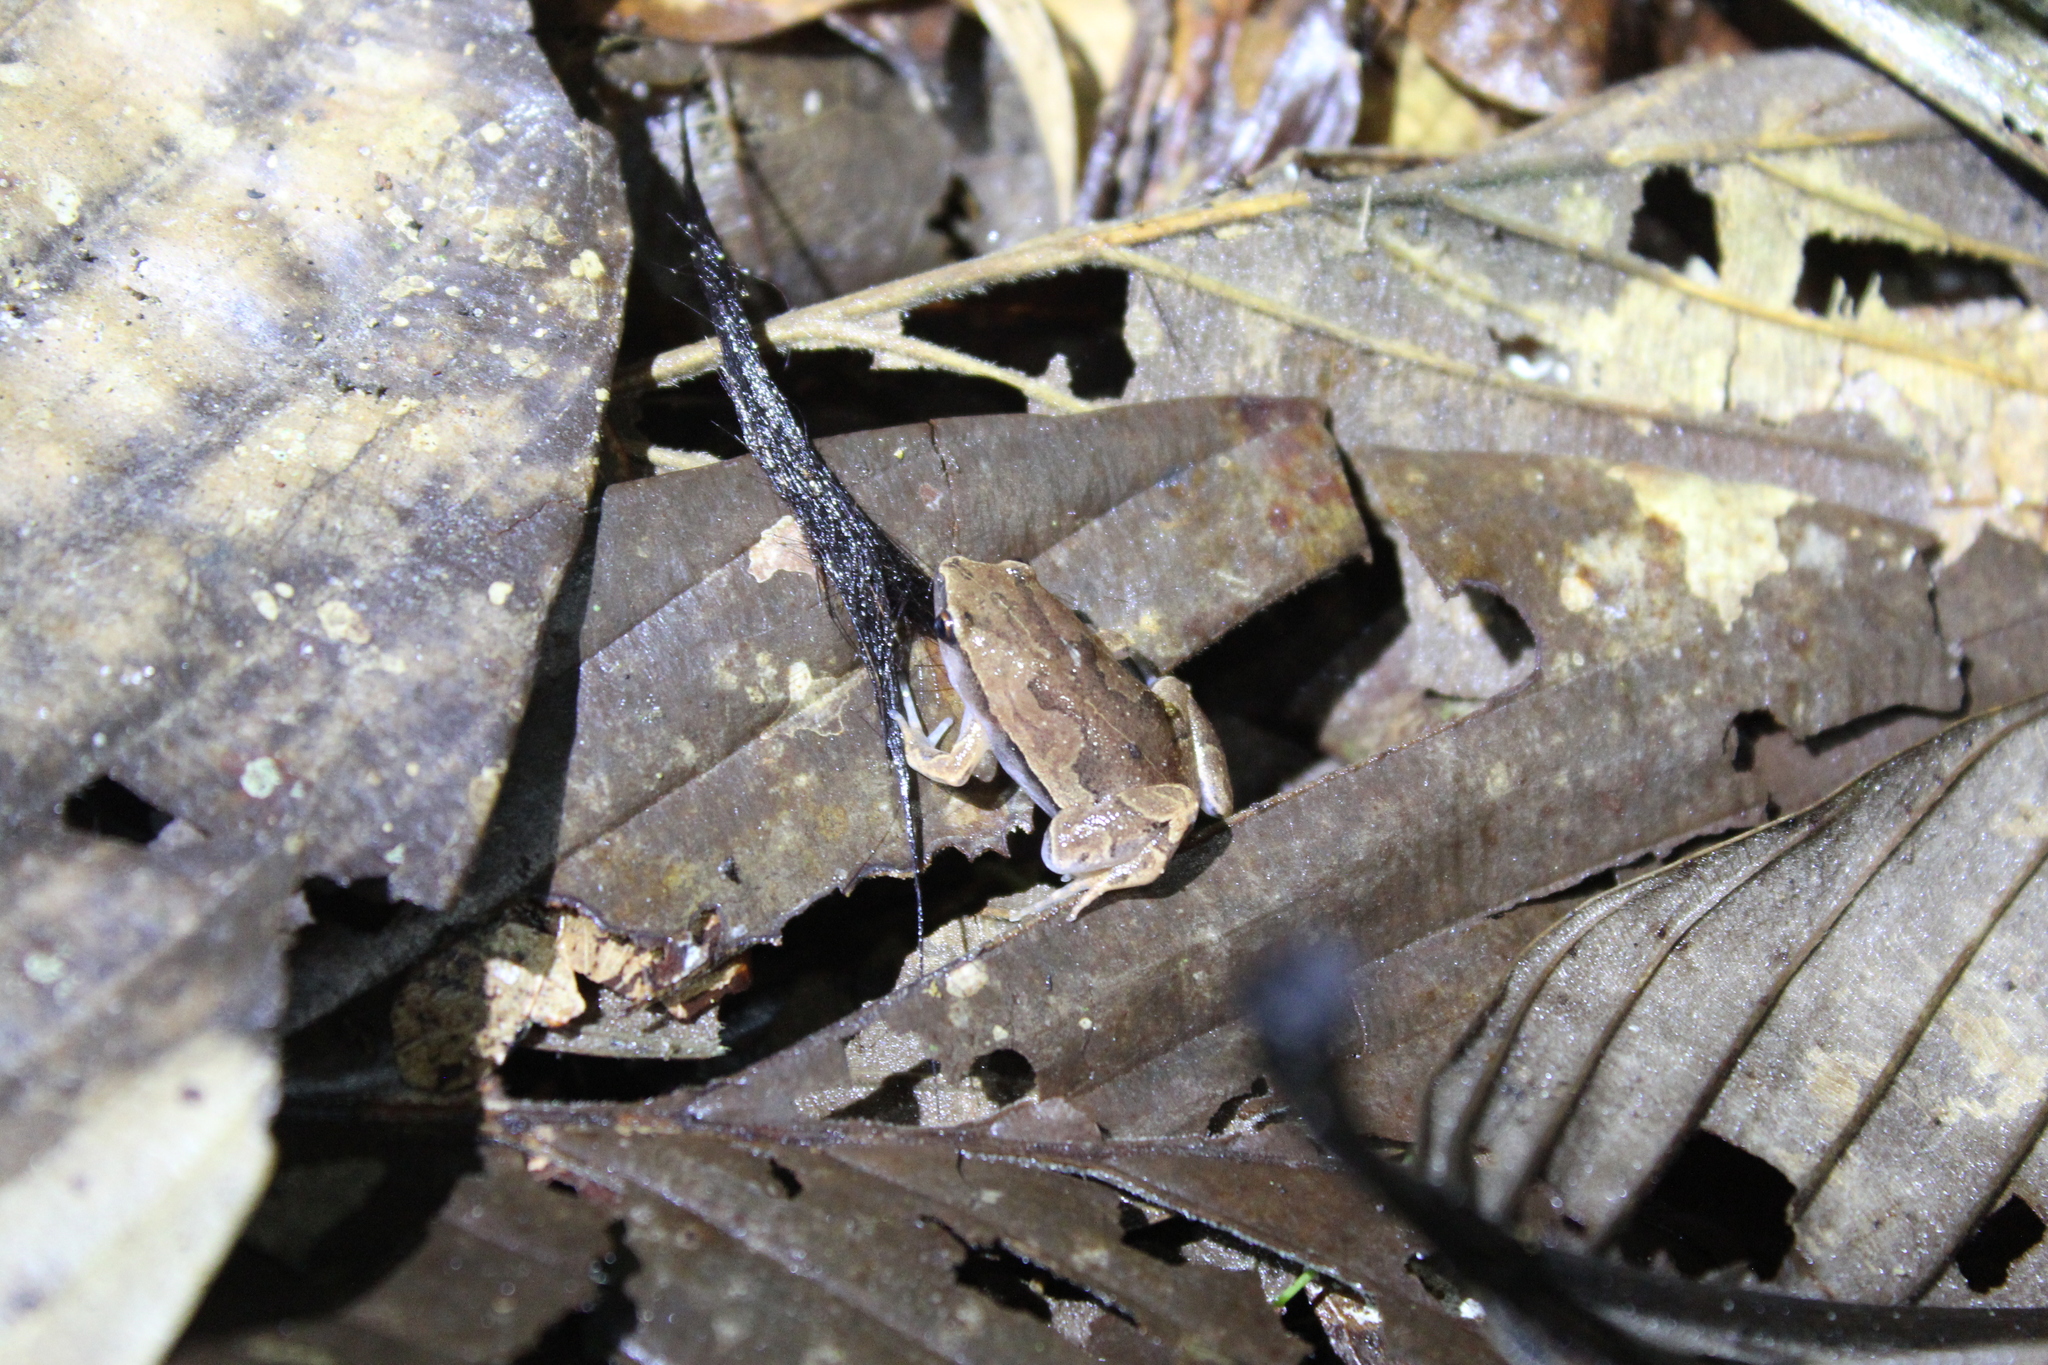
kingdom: Animalia
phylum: Chordata
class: Amphibia
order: Anura
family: Microhylidae
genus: Hamptophryne
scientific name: Hamptophryne boliviana
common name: Bolivian bleating frog
